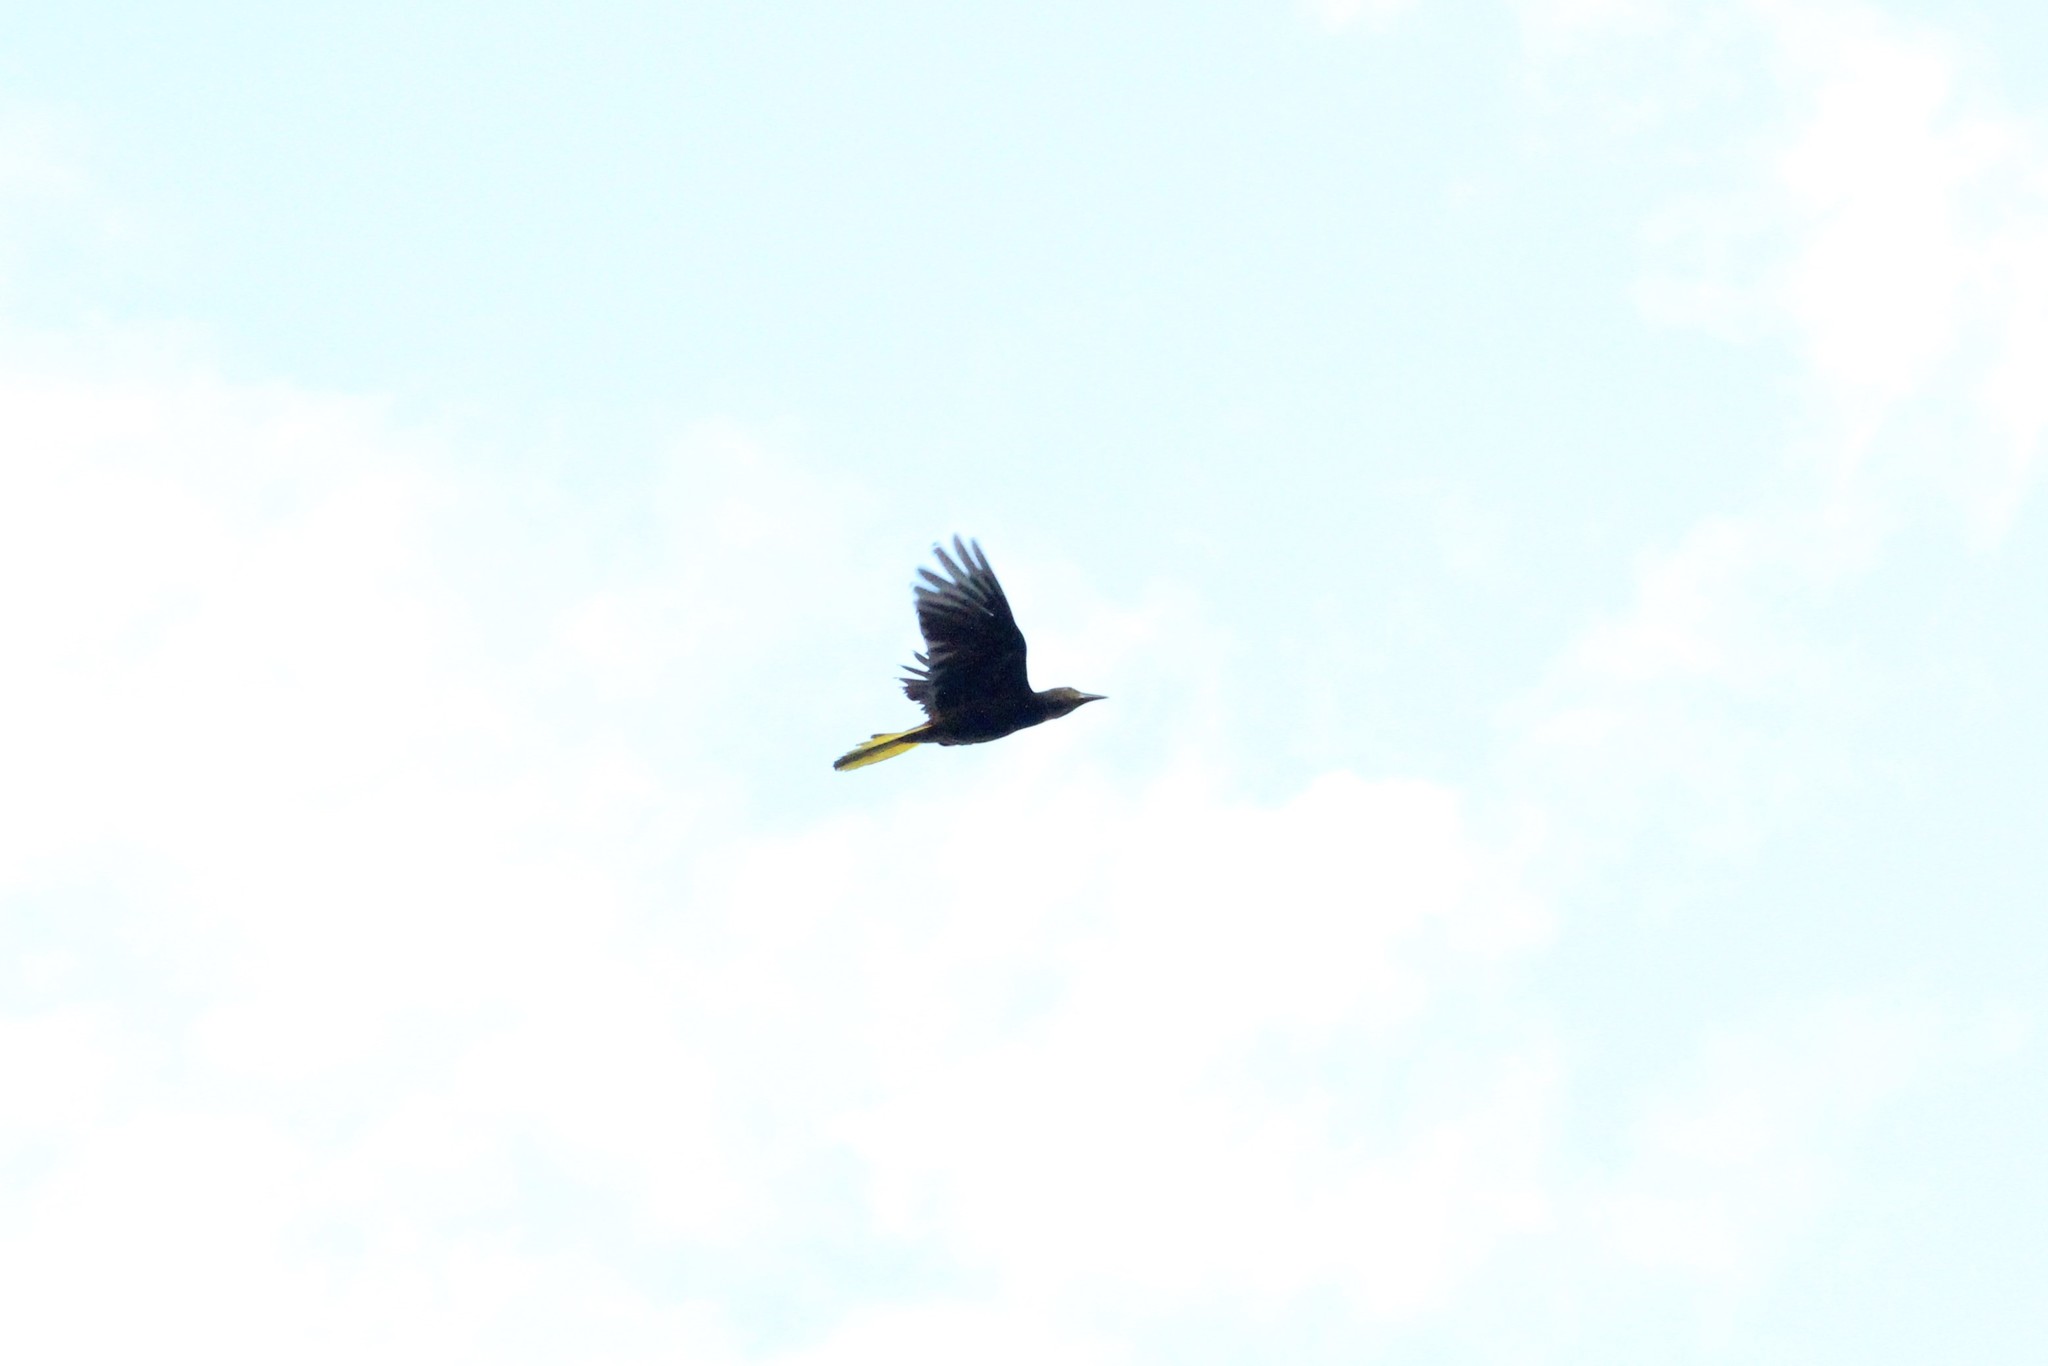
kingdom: Animalia
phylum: Chordata
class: Aves
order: Passeriformes
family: Icteridae
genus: Psarocolius
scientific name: Psarocolius angustifrons
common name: Russet-backed oropendola
